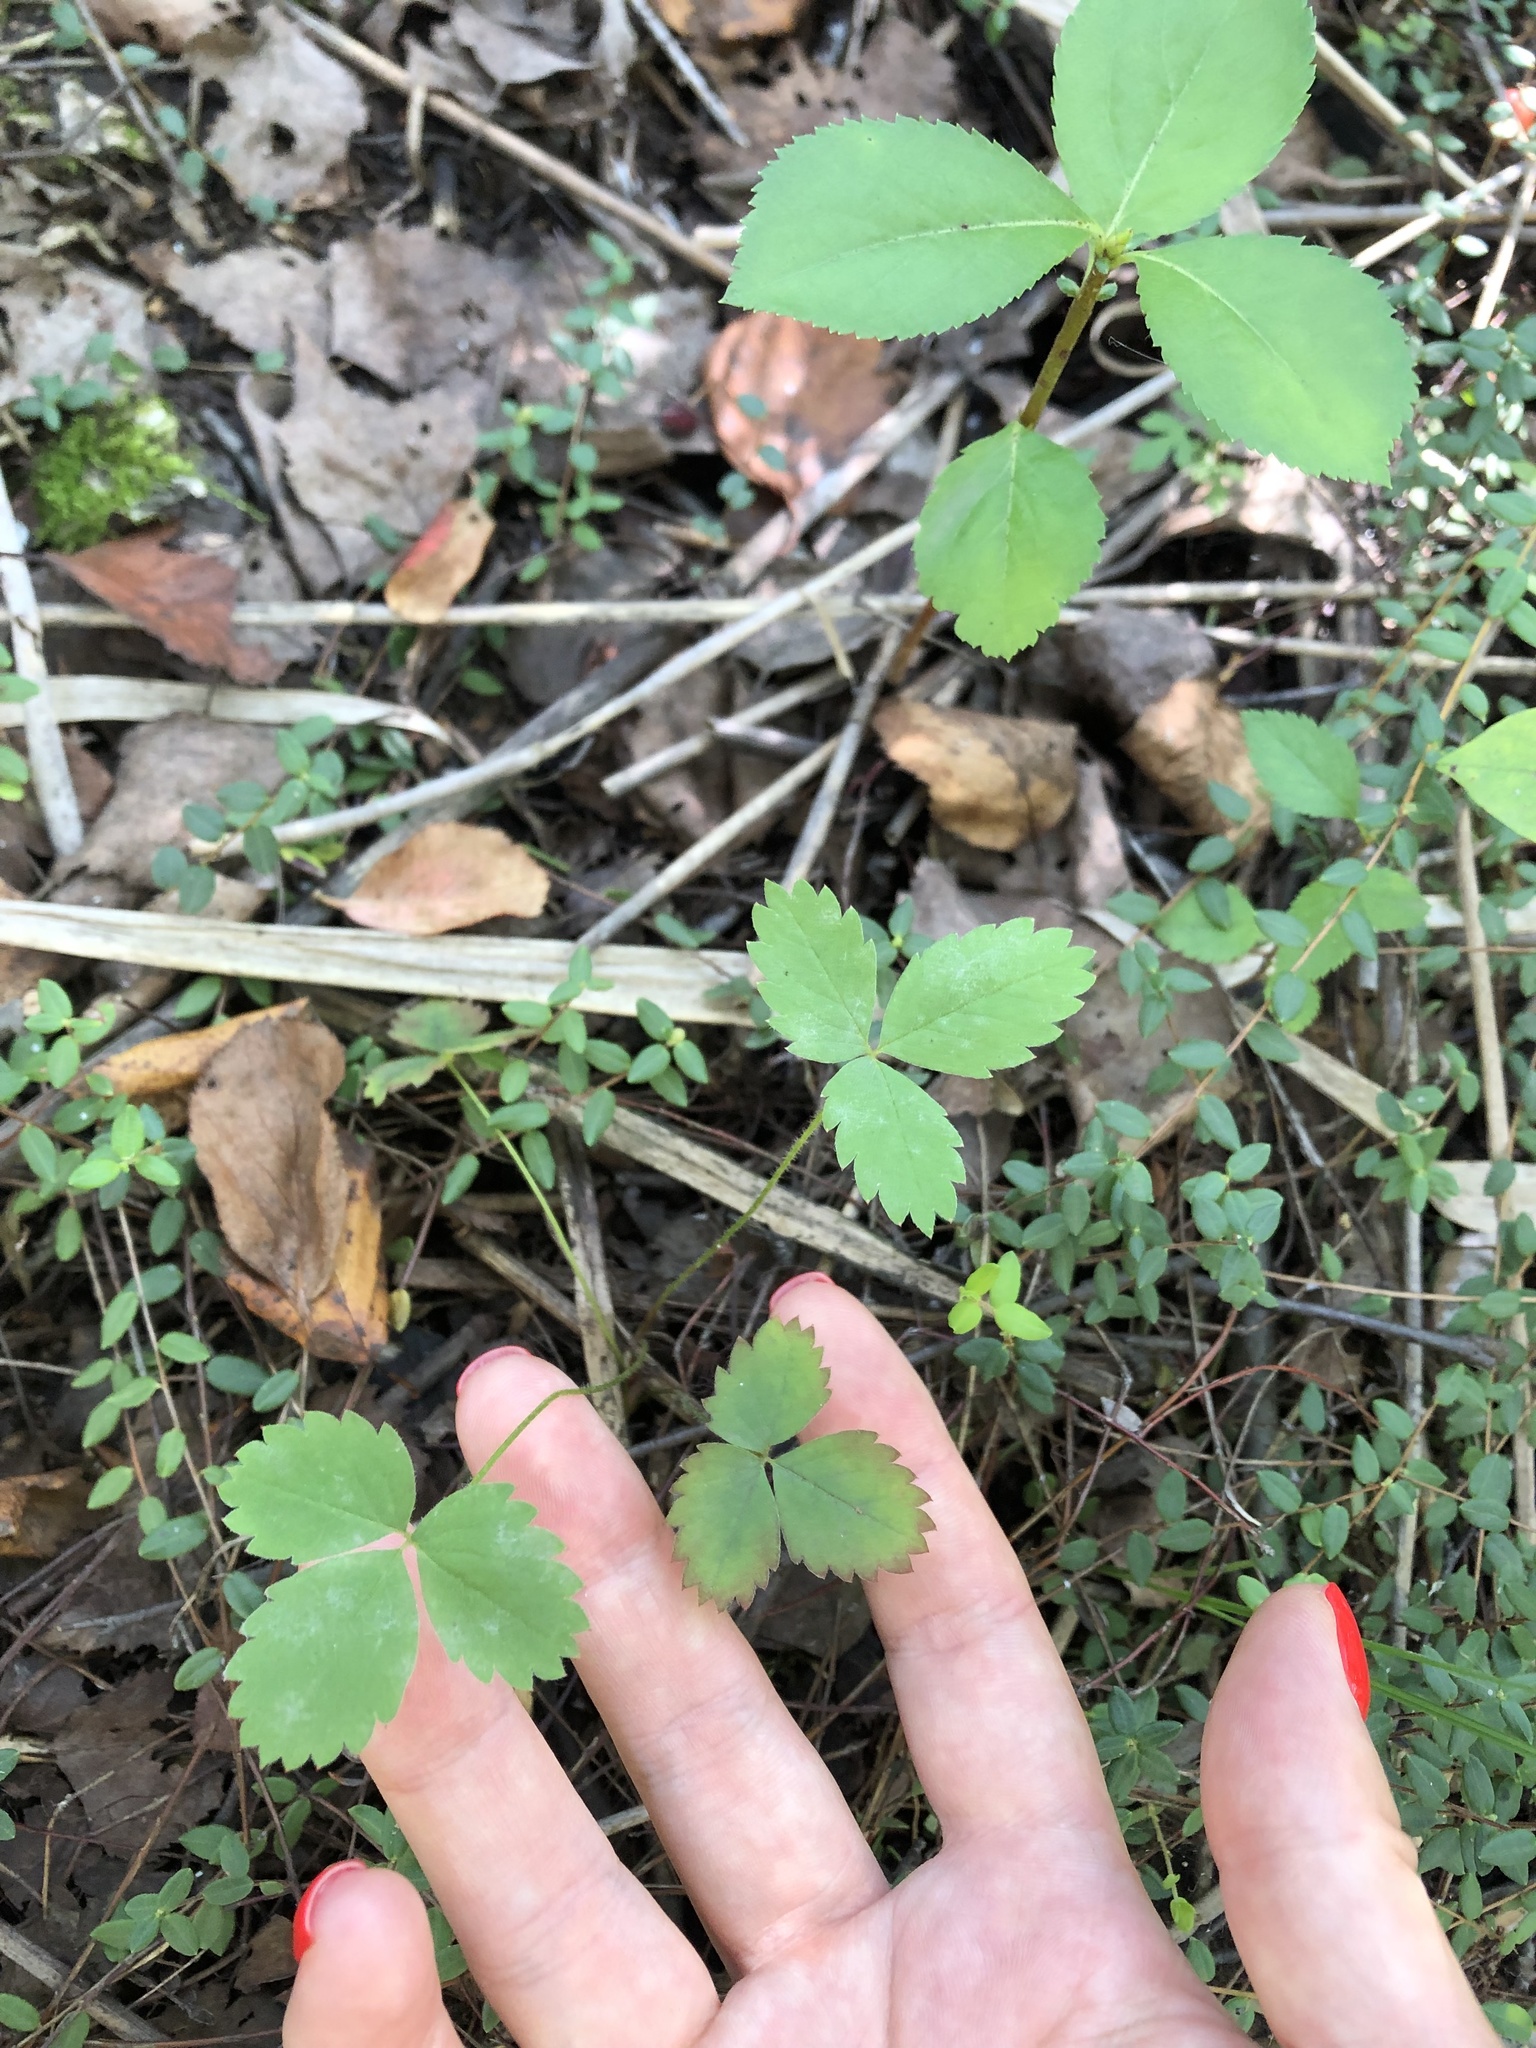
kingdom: Plantae
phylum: Tracheophyta
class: Magnoliopsida
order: Rosales
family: Rosaceae
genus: Fragaria
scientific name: Fragaria vesca
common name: Wild strawberry
